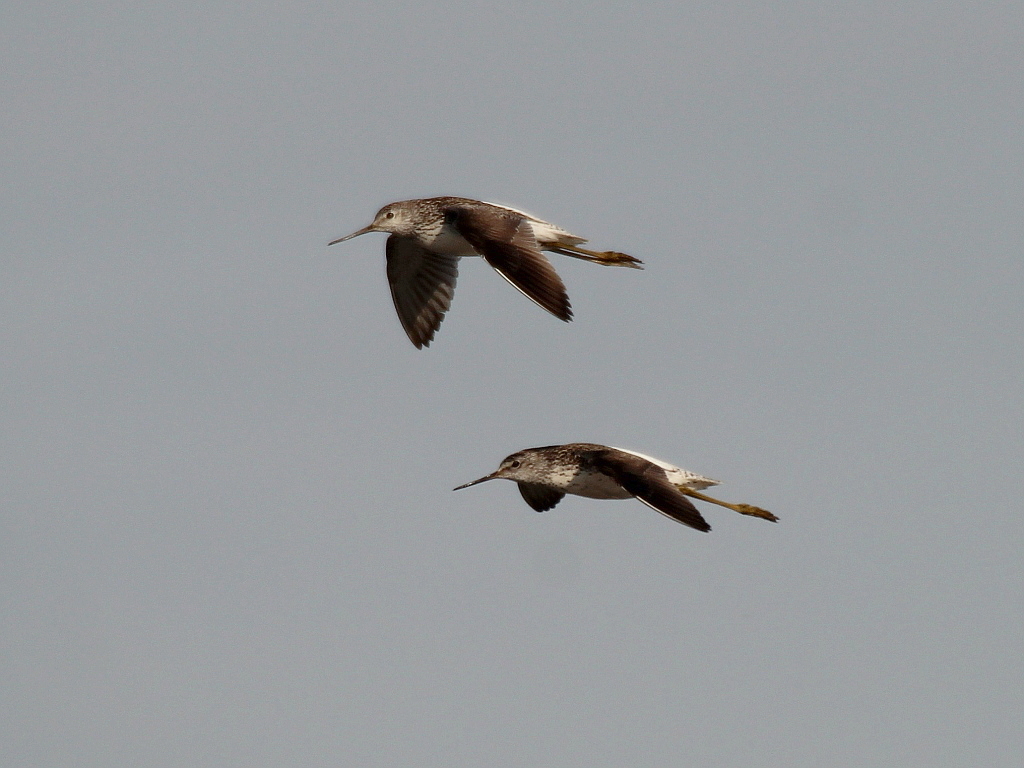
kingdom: Animalia
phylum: Chordata
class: Aves
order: Charadriiformes
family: Scolopacidae
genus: Tringa
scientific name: Tringa stagnatilis
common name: Marsh sandpiper
